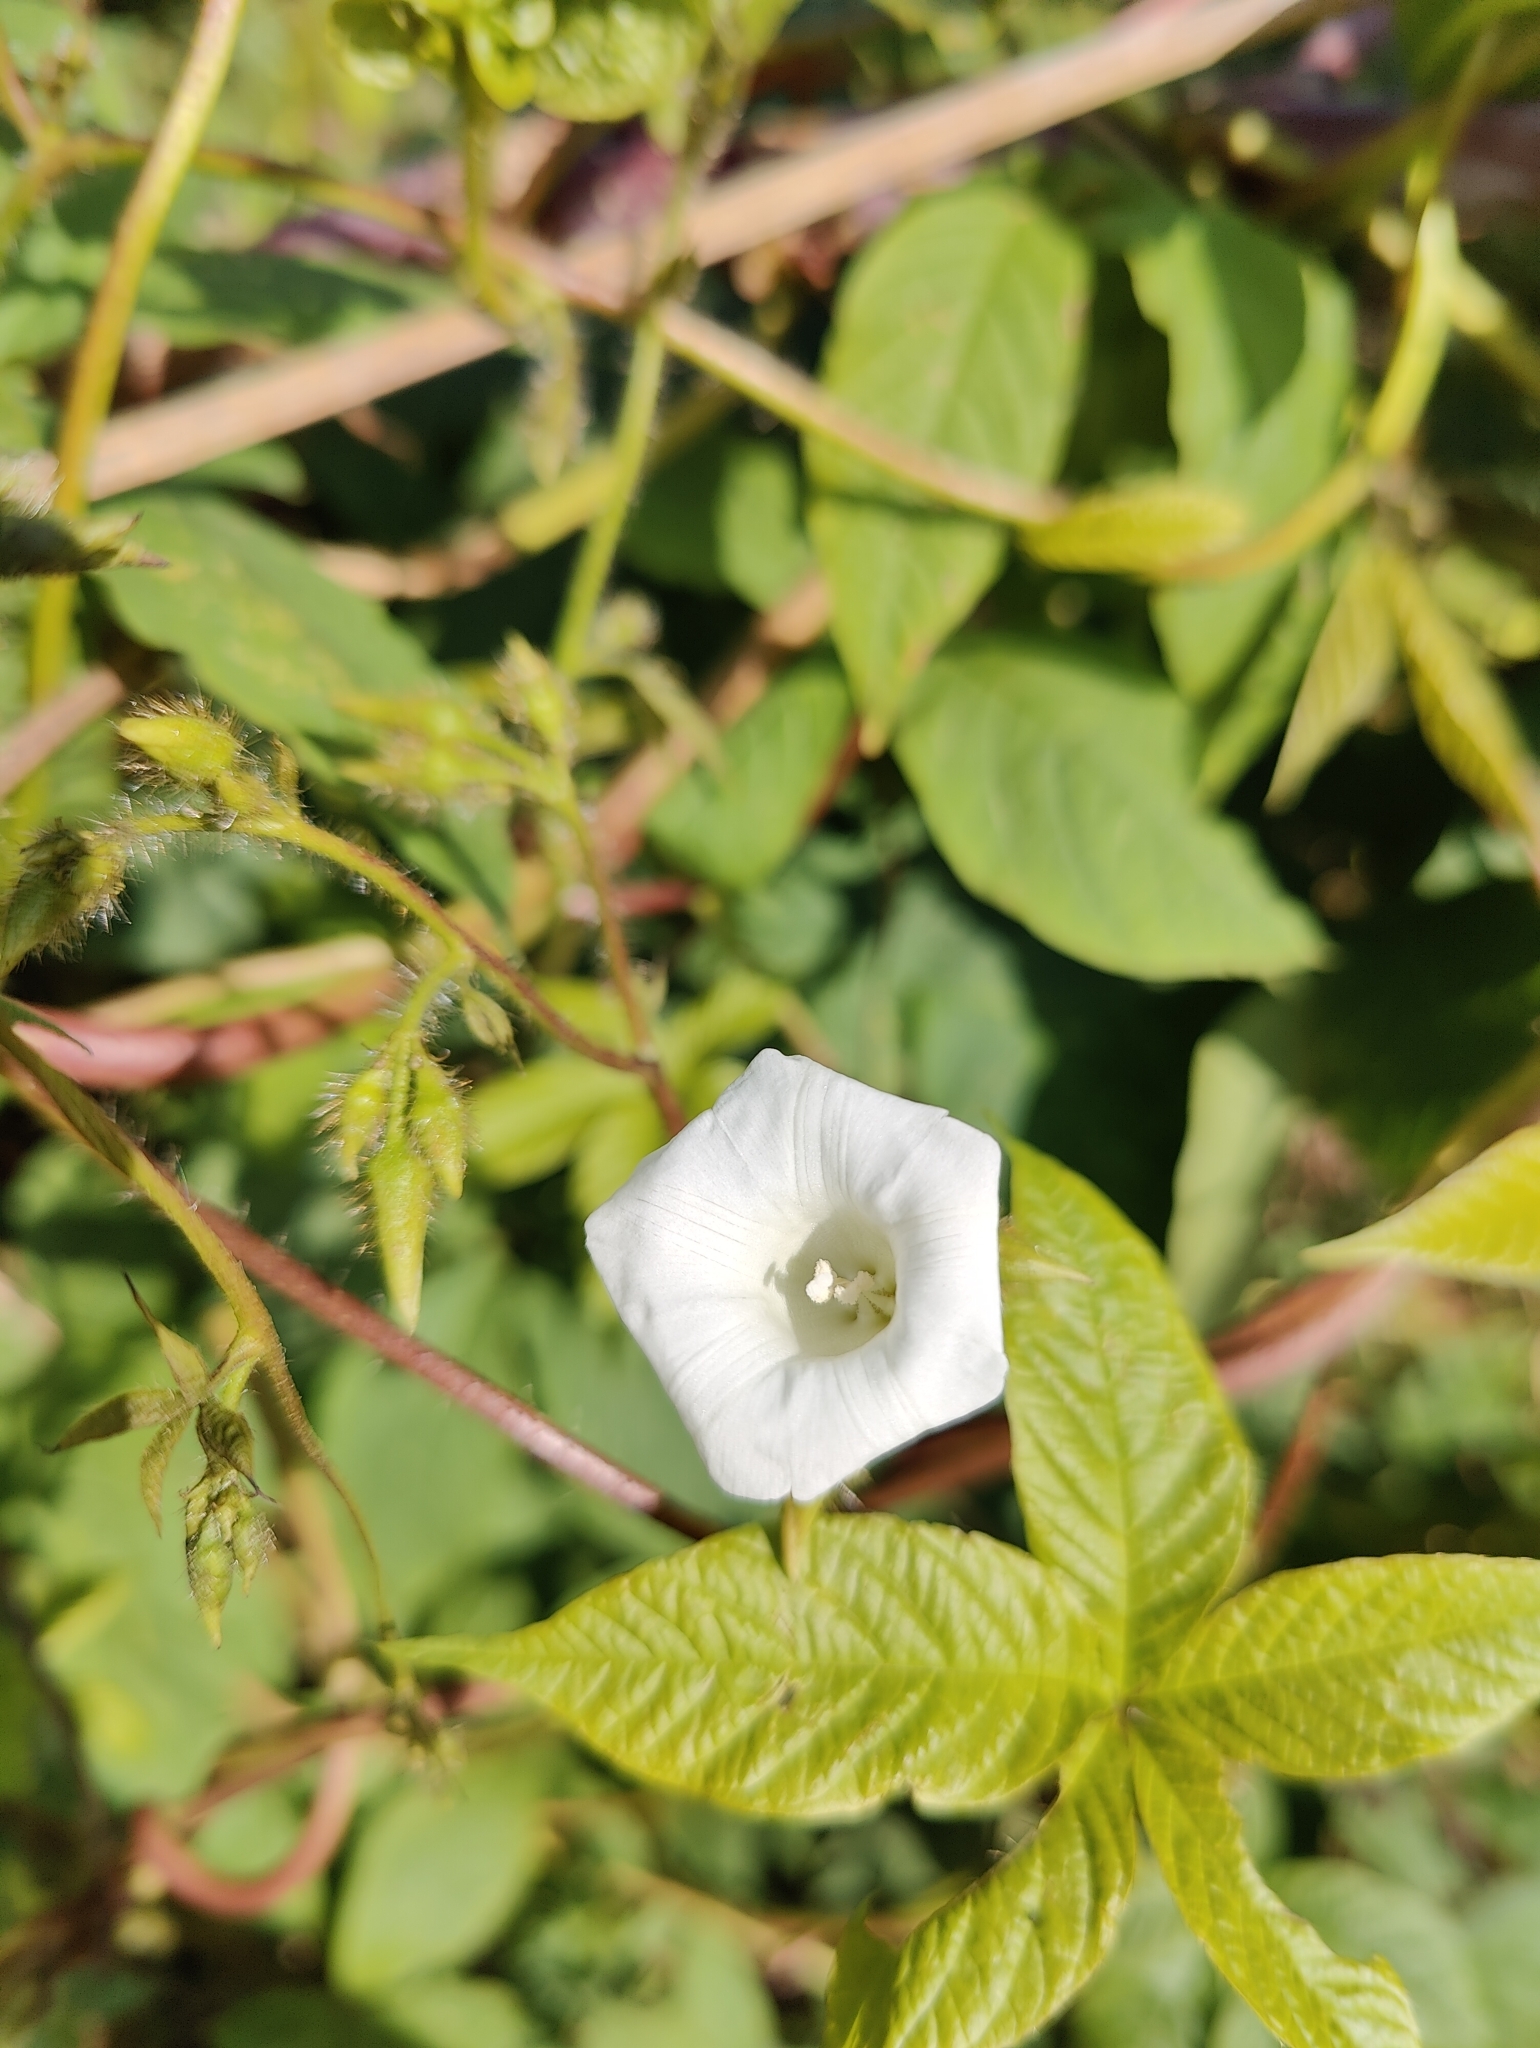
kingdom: Plantae
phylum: Tracheophyta
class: Magnoliopsida
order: Solanales
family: Convolvulaceae
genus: Distimake
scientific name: Distimake aegyptius
